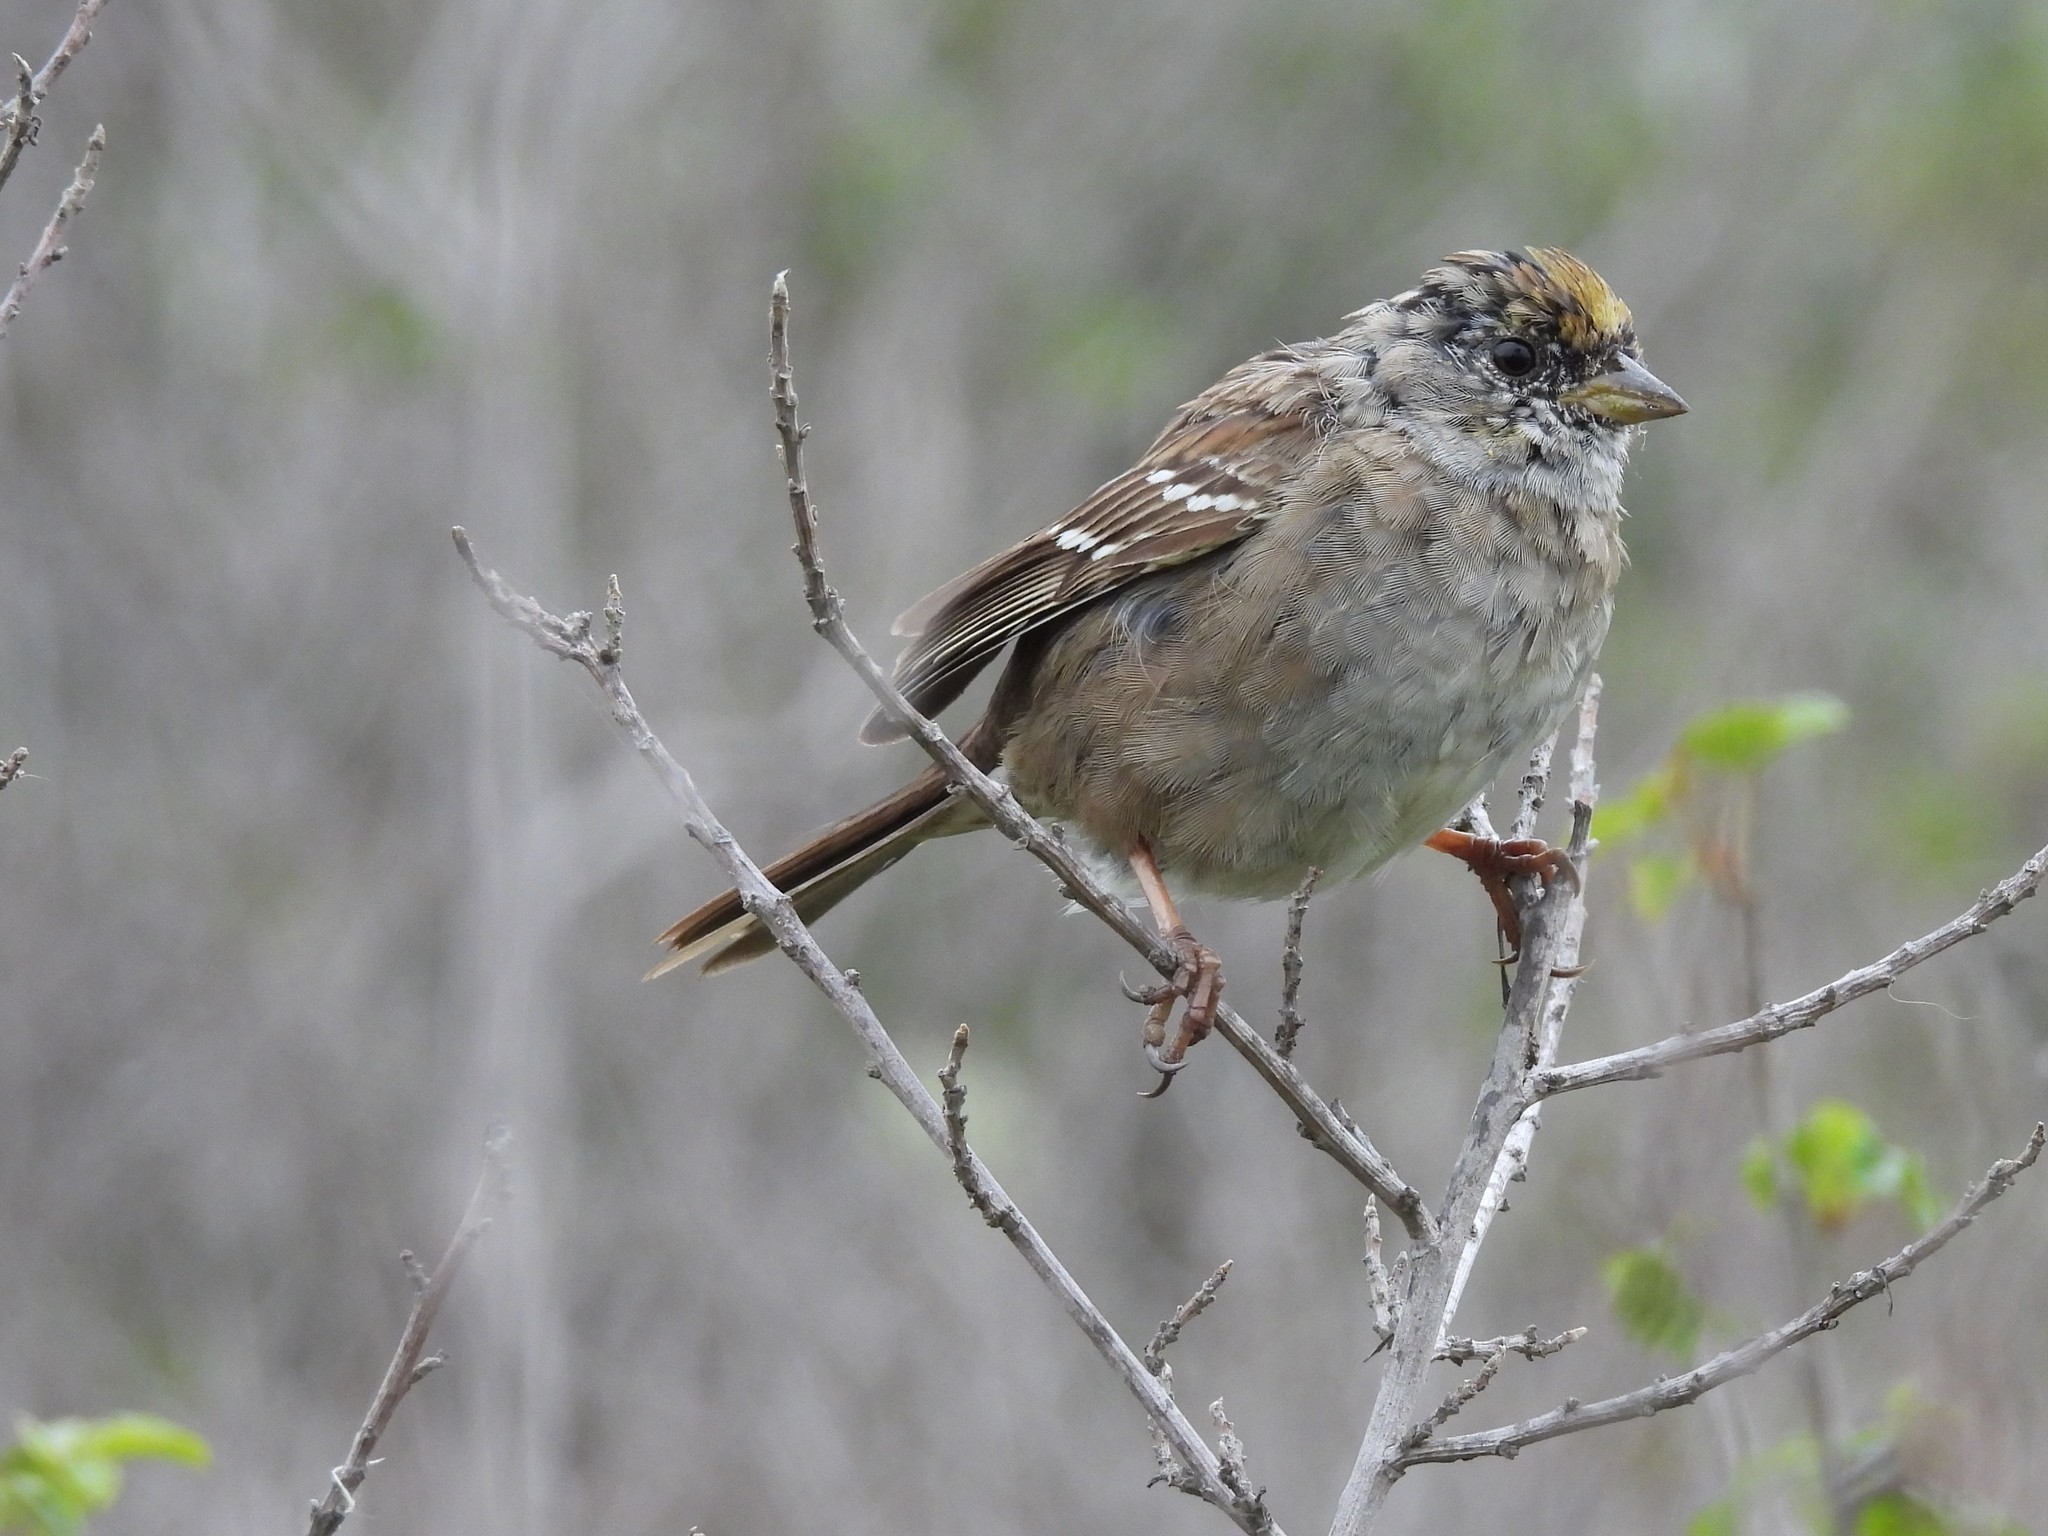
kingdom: Animalia
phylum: Chordata
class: Aves
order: Passeriformes
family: Passerellidae
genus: Zonotrichia
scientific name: Zonotrichia atricapilla
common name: Golden-crowned sparrow
